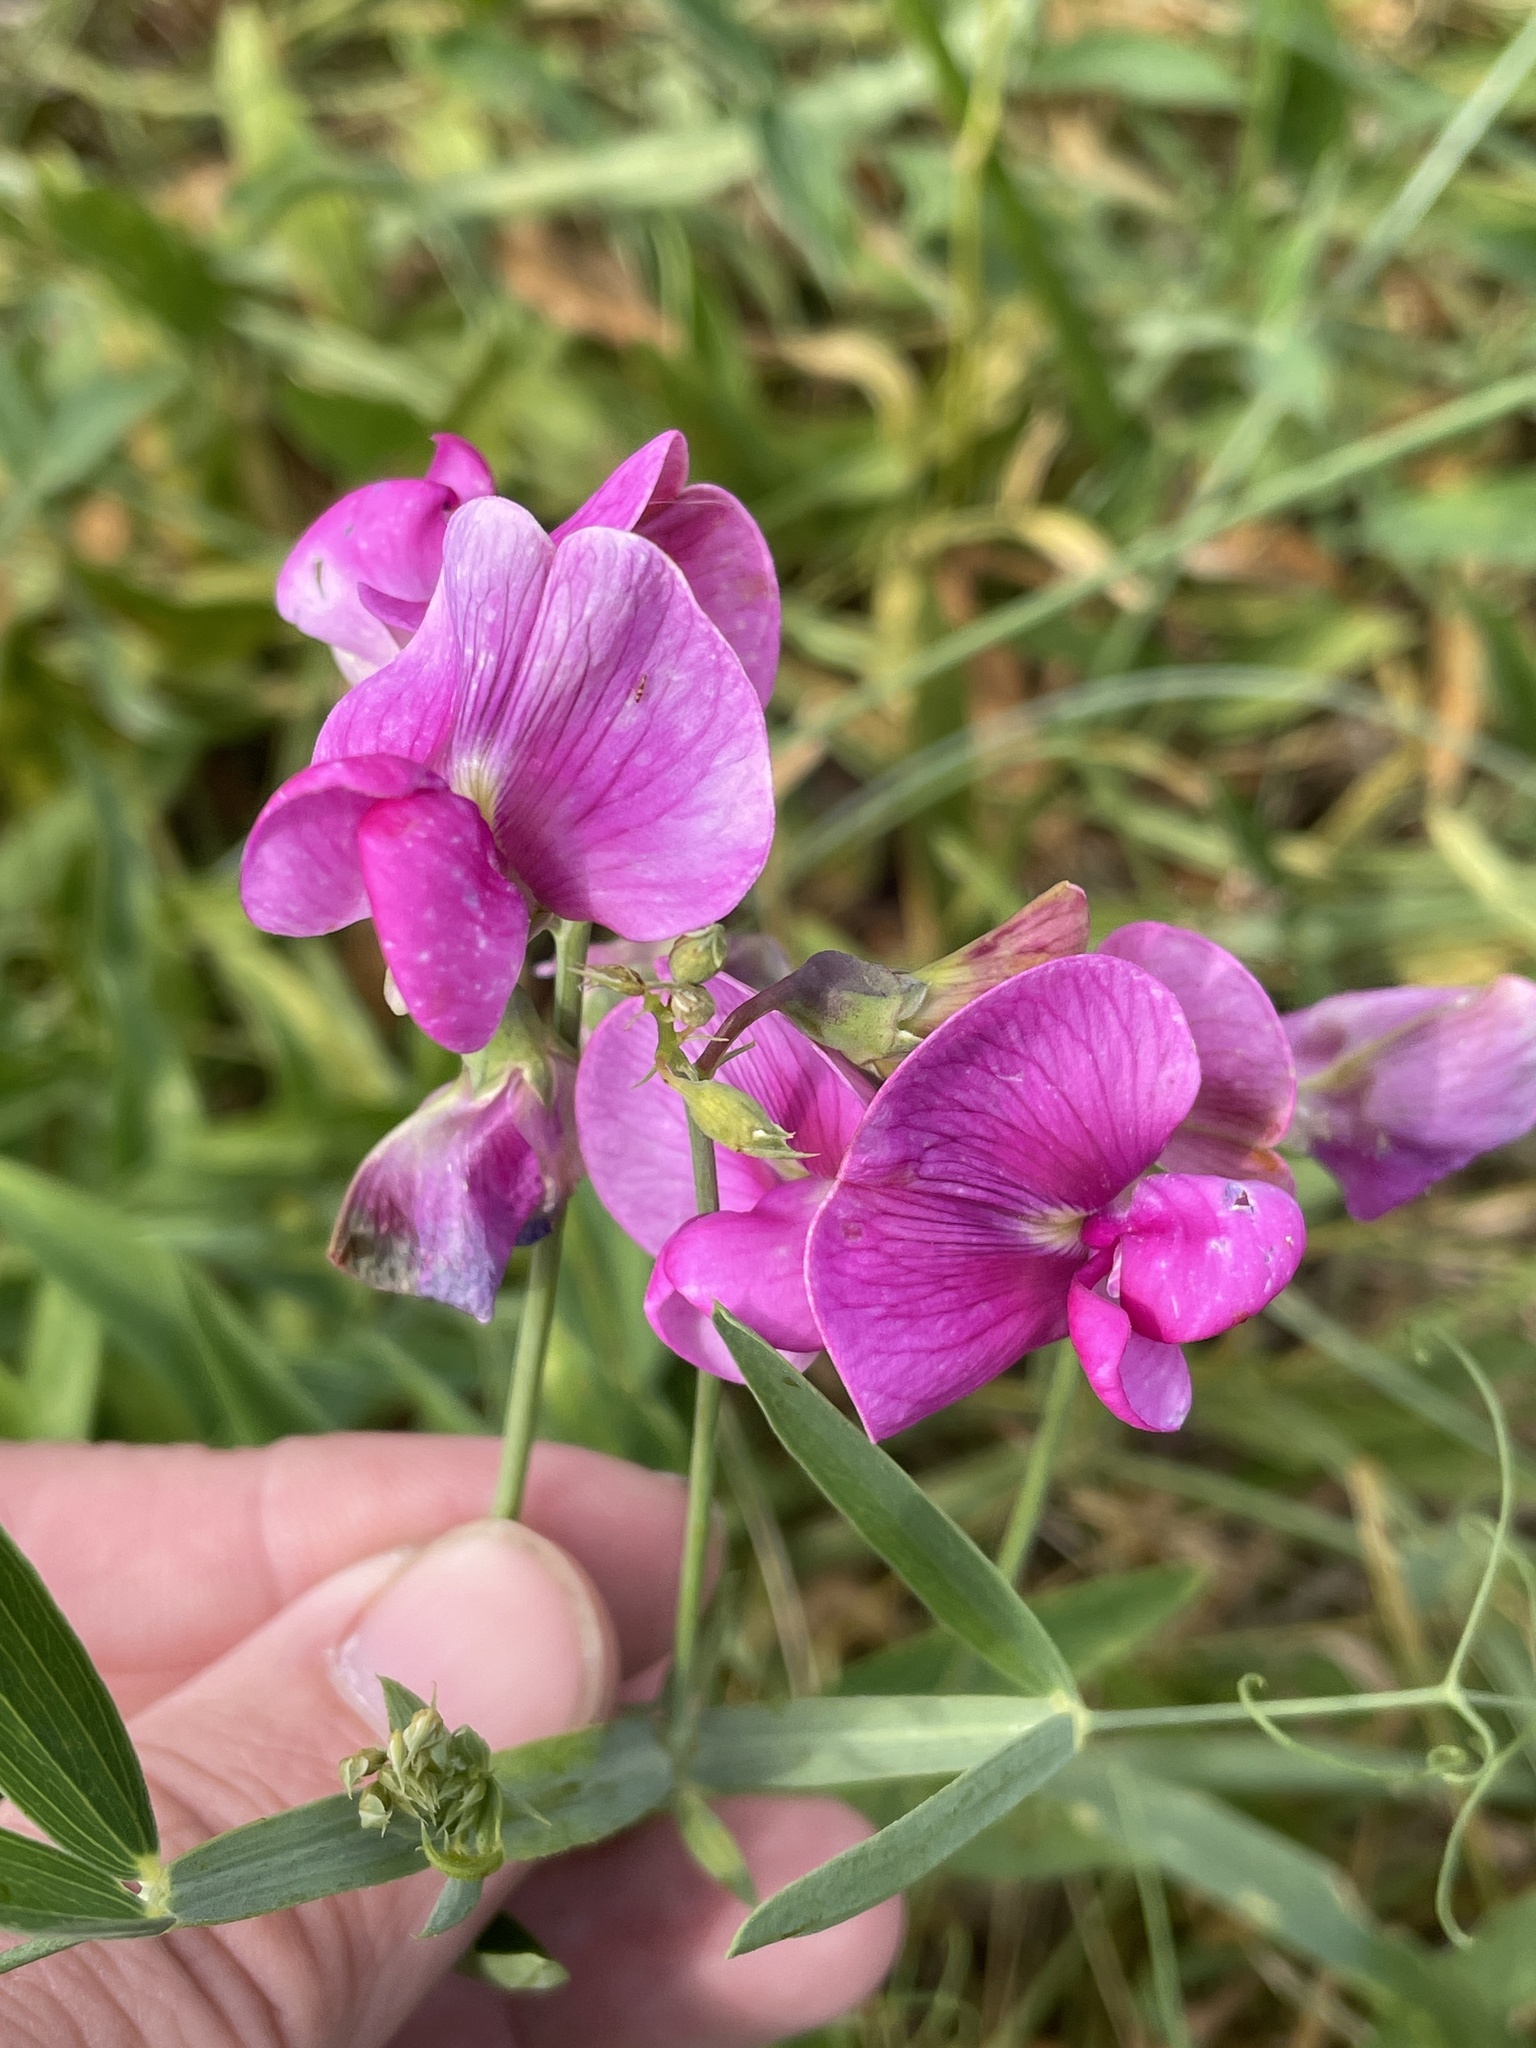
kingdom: Plantae
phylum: Tracheophyta
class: Magnoliopsida
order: Fabales
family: Fabaceae
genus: Lathyrus
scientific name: Lathyrus latifolius
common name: Perennial pea
